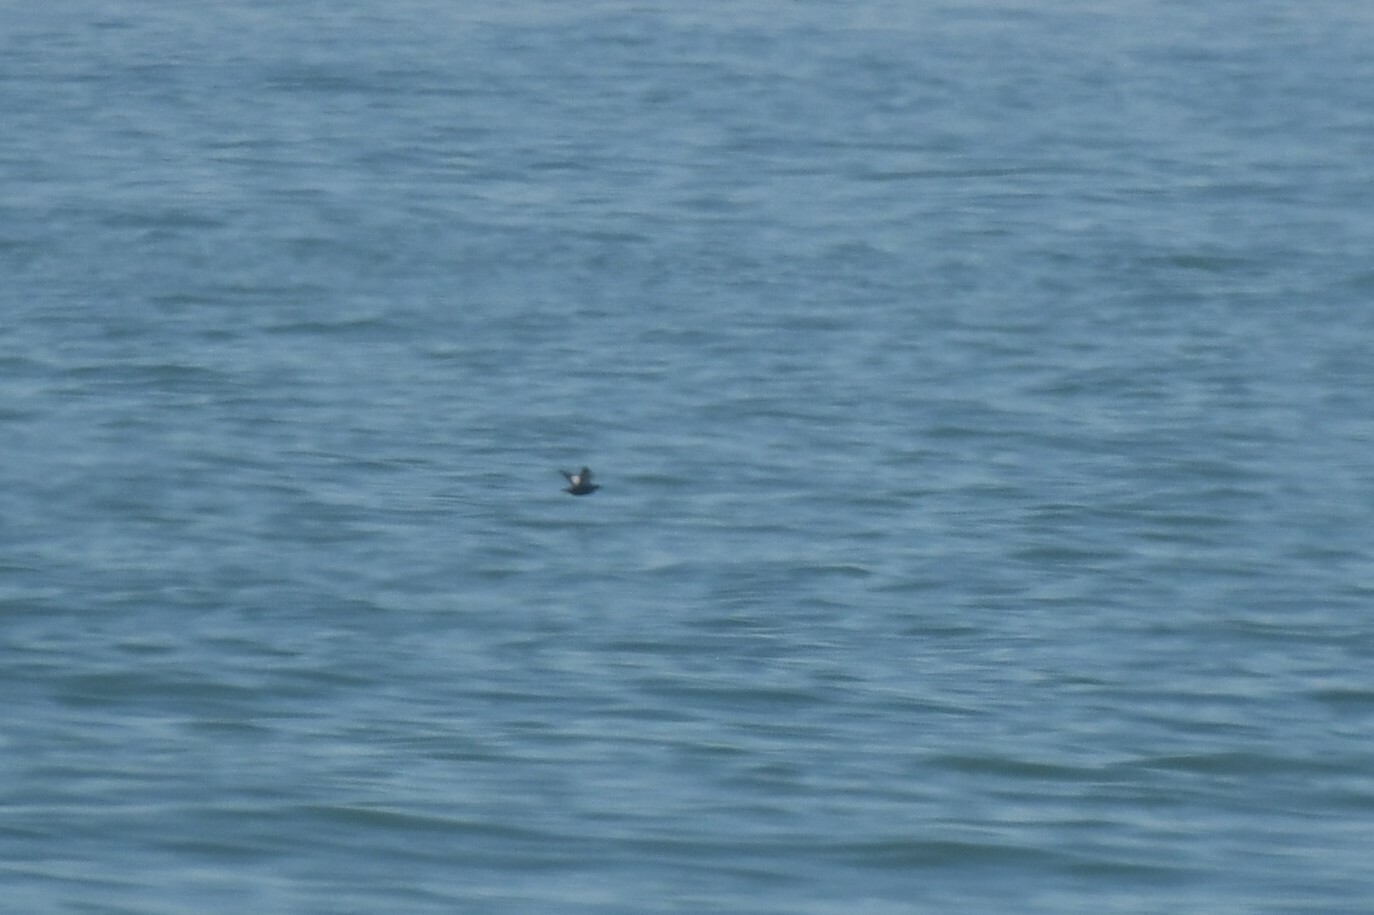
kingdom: Animalia
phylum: Chordata
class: Aves
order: Charadriiformes
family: Alcidae
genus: Cepphus
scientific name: Cepphus grylle
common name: Black guillemot
